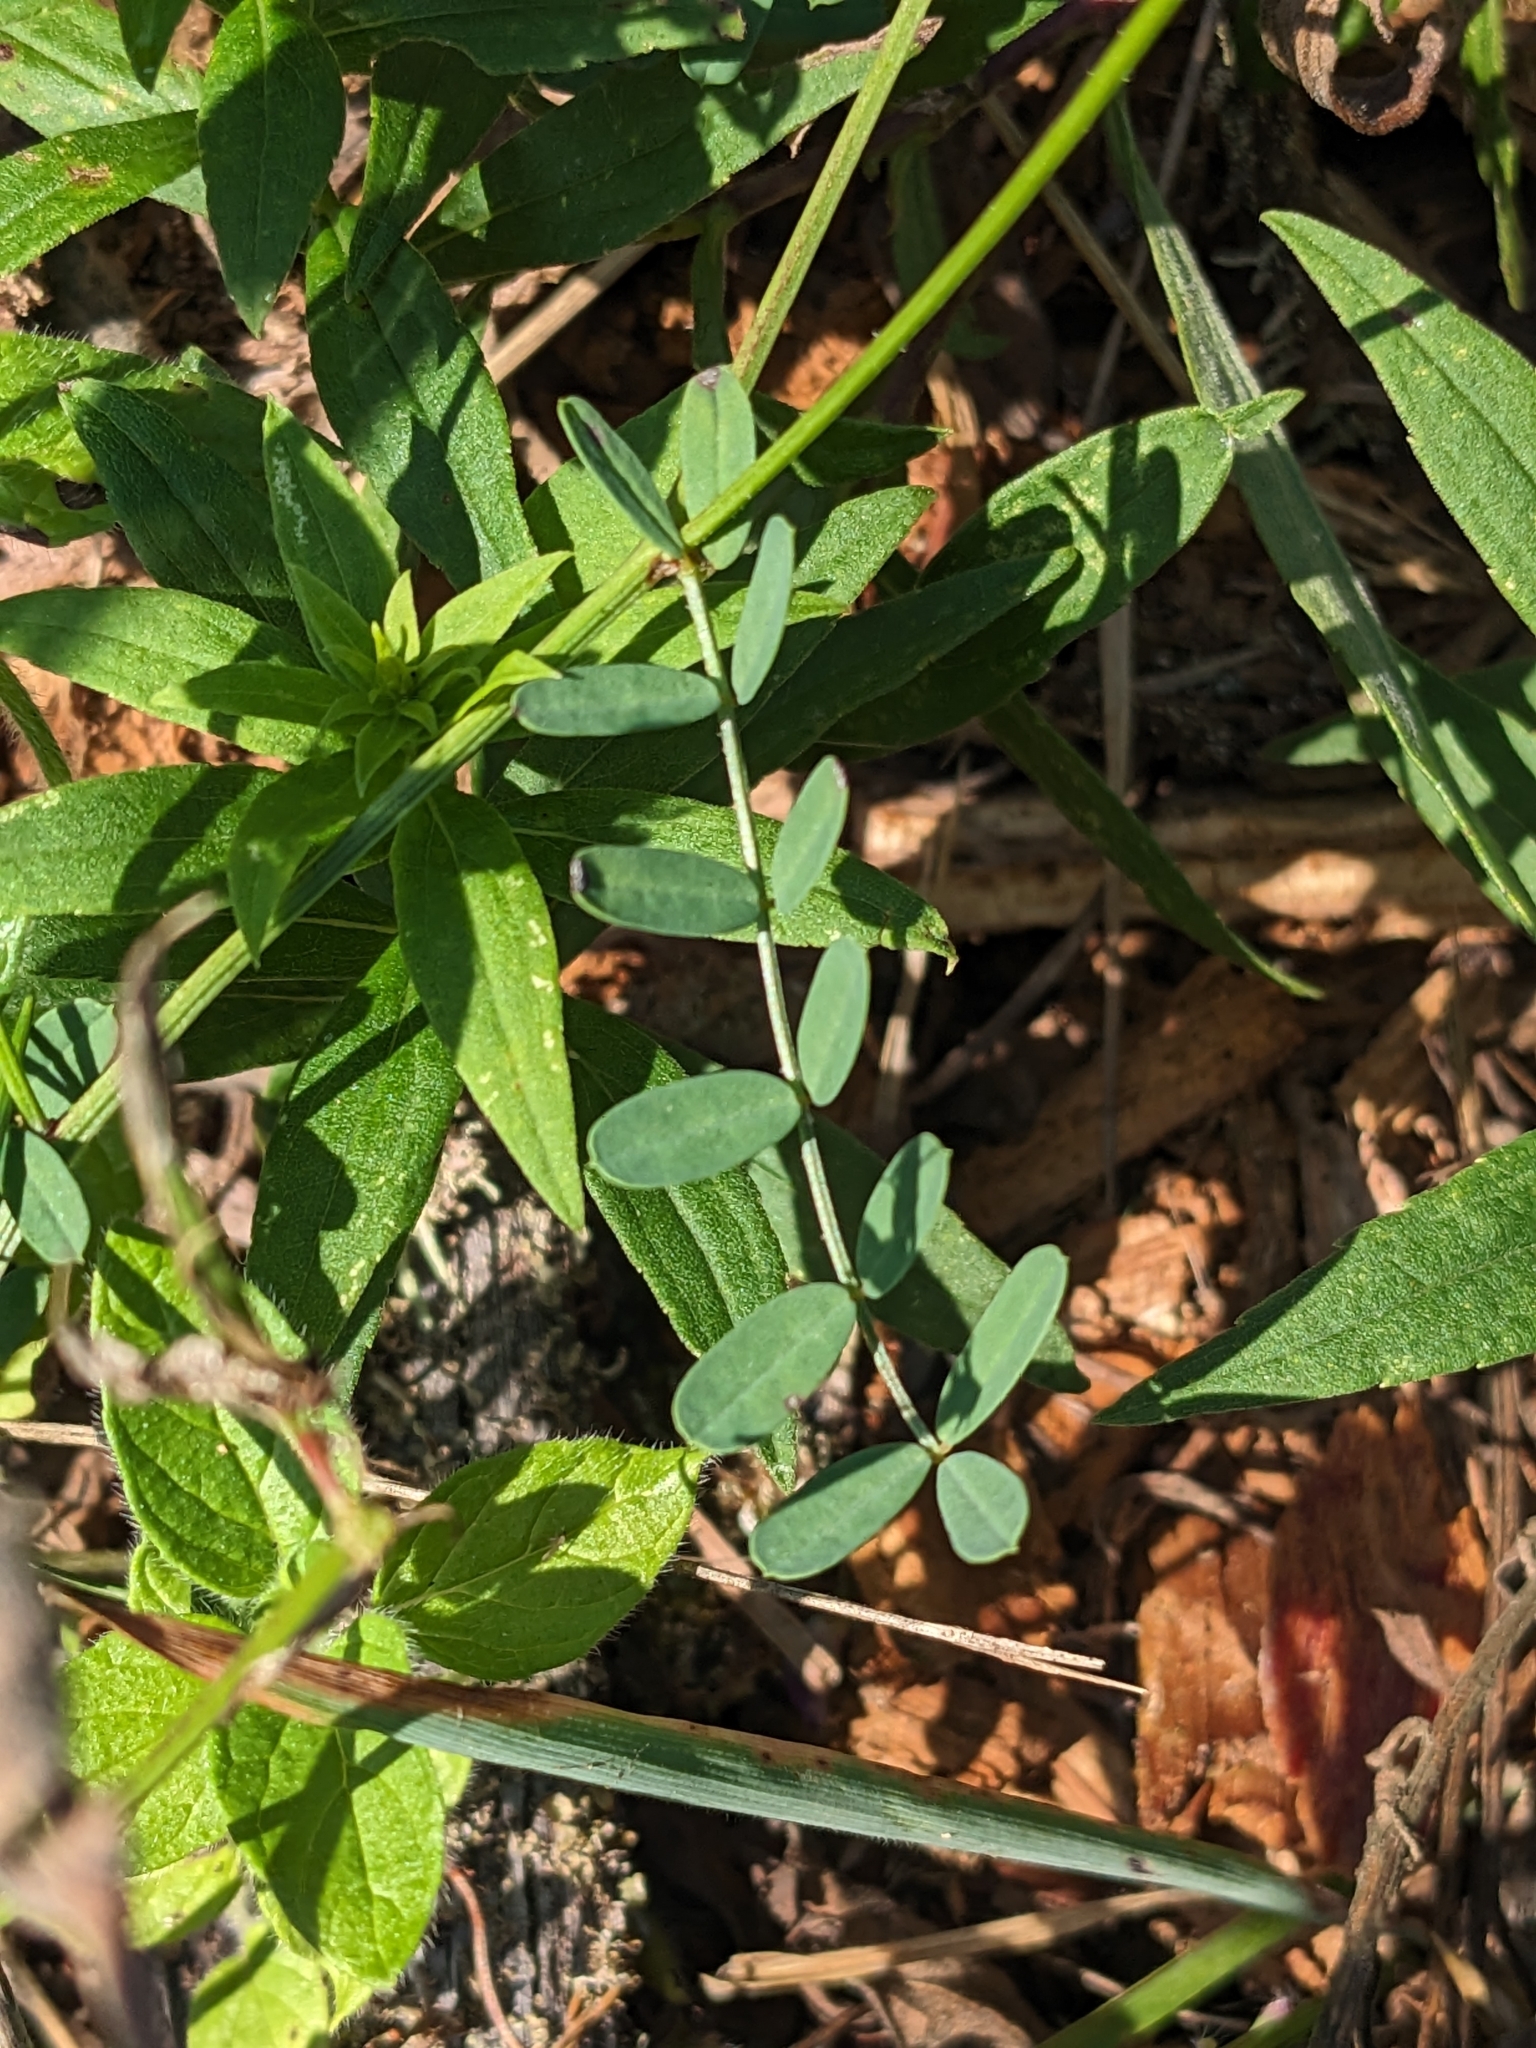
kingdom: Plantae
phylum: Tracheophyta
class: Magnoliopsida
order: Fabales
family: Fabaceae
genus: Coronilla
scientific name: Coronilla varia
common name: Crownvetch
